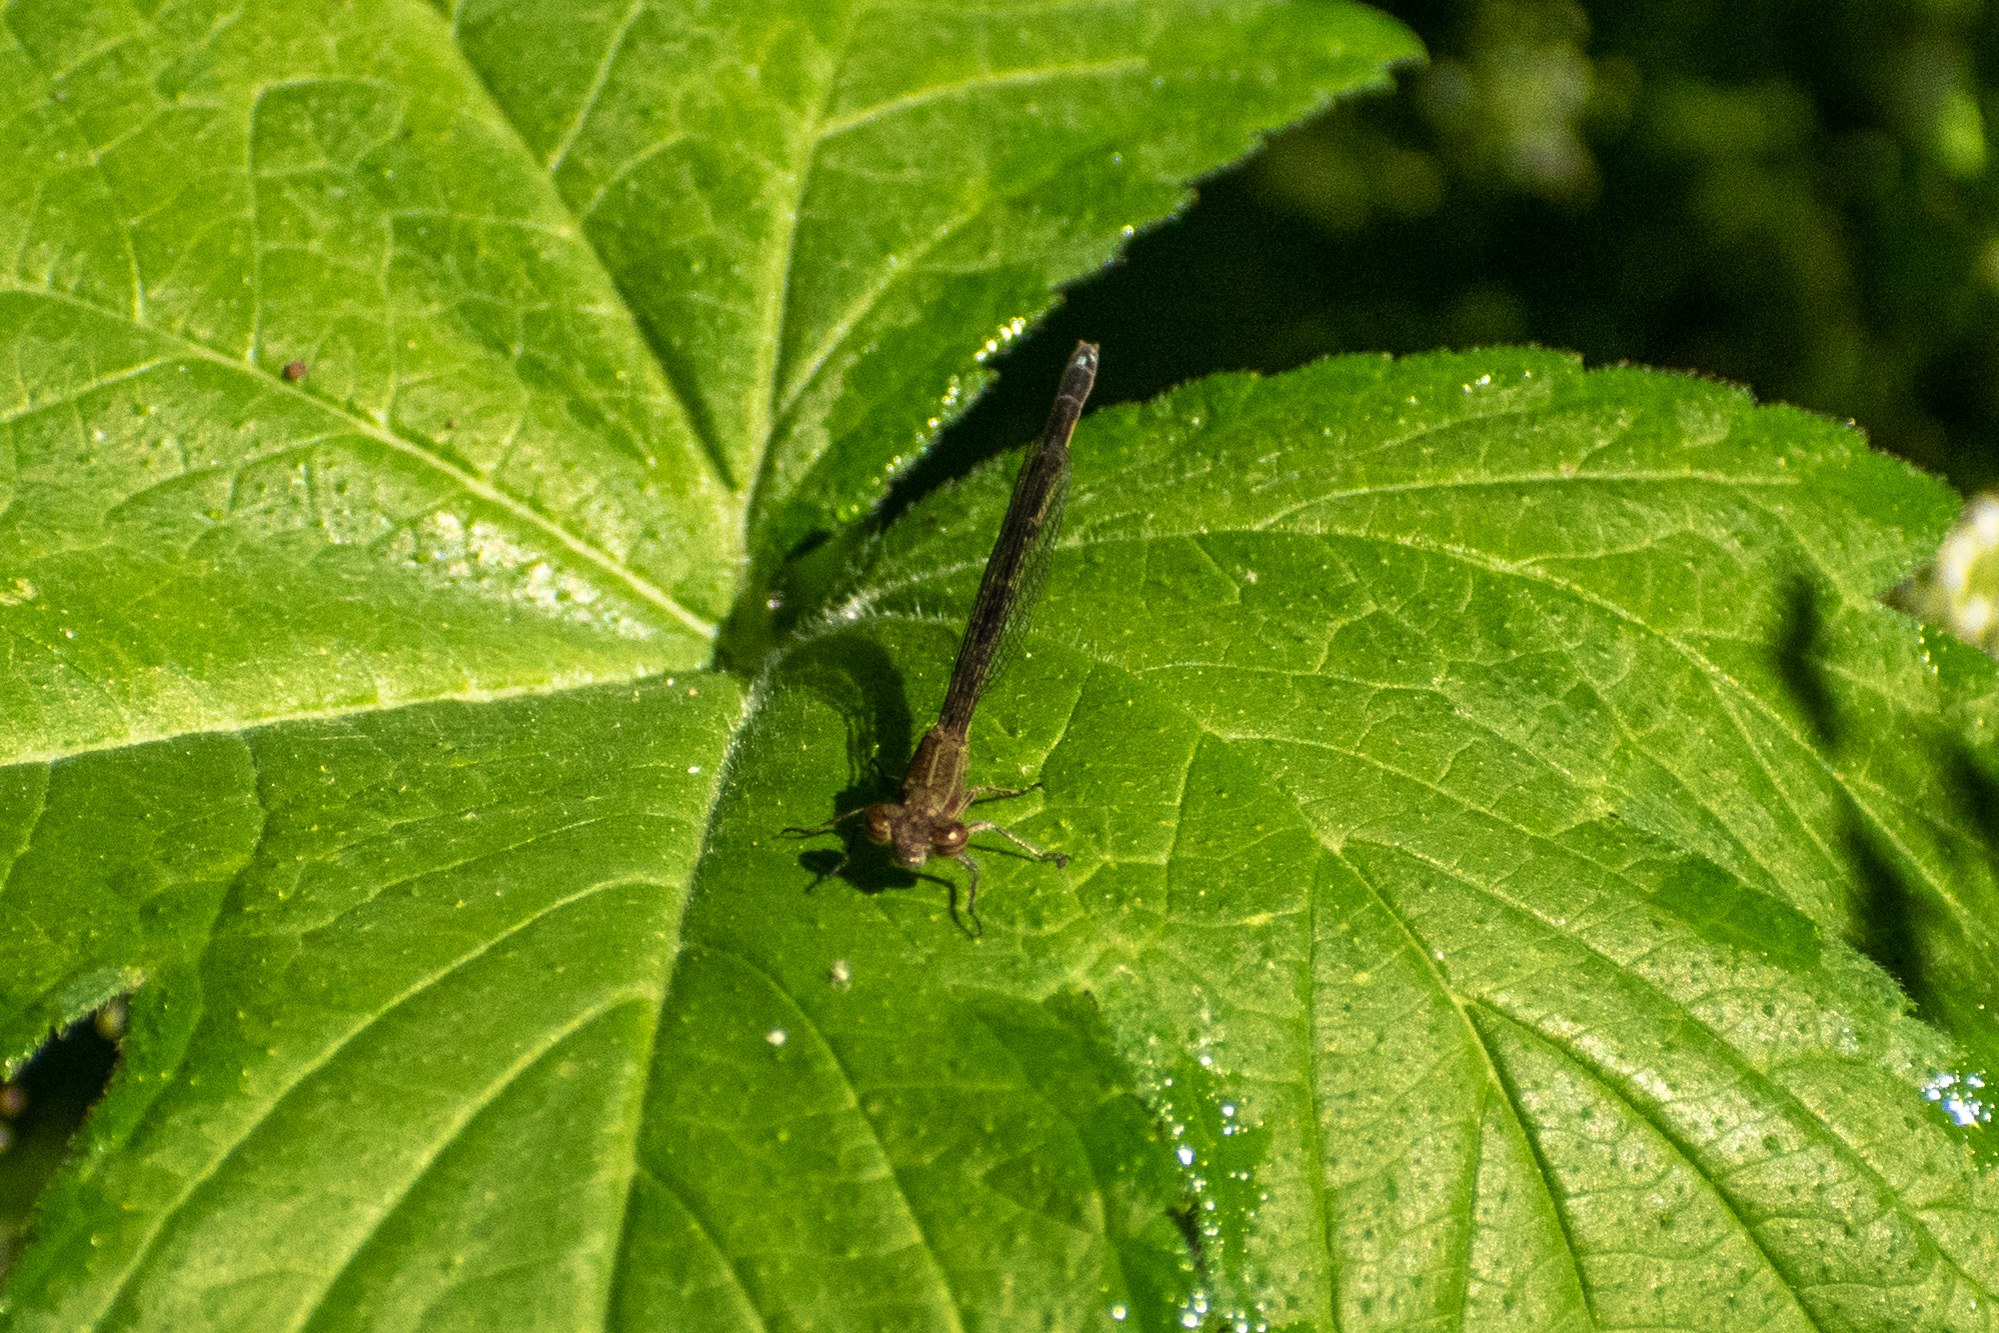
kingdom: Animalia
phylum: Arthropoda
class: Insecta
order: Odonata
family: Coenagrionidae
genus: Oxyagrion
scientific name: Oxyagrion terminale
